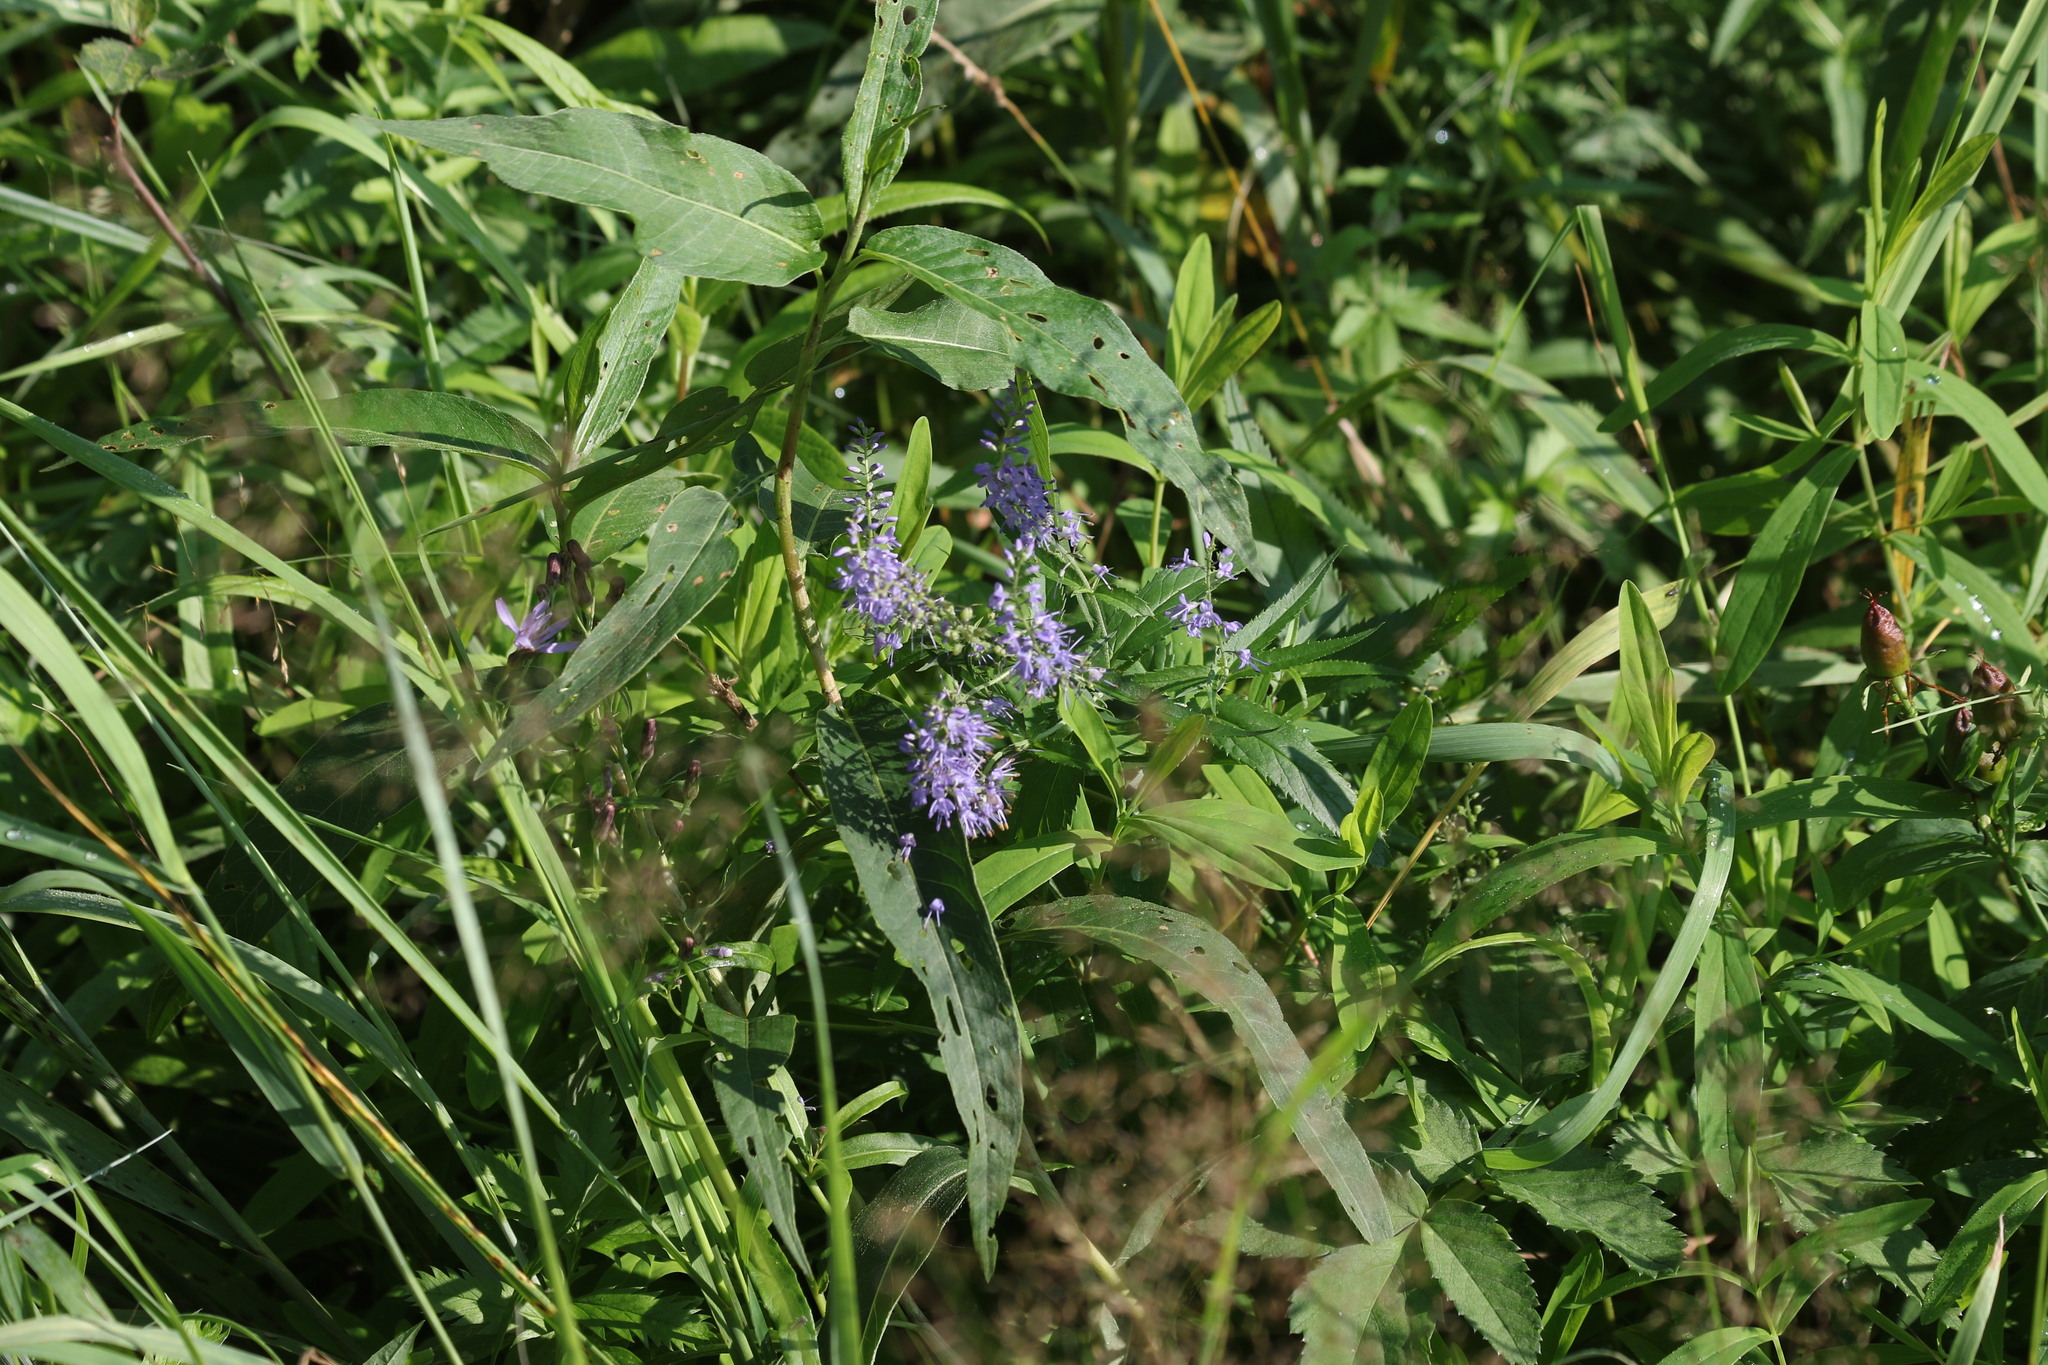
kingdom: Plantae
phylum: Tracheophyta
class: Magnoliopsida
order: Lamiales
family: Plantaginaceae
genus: Veronica
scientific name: Veronica longifolia
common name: Garden speedwell
